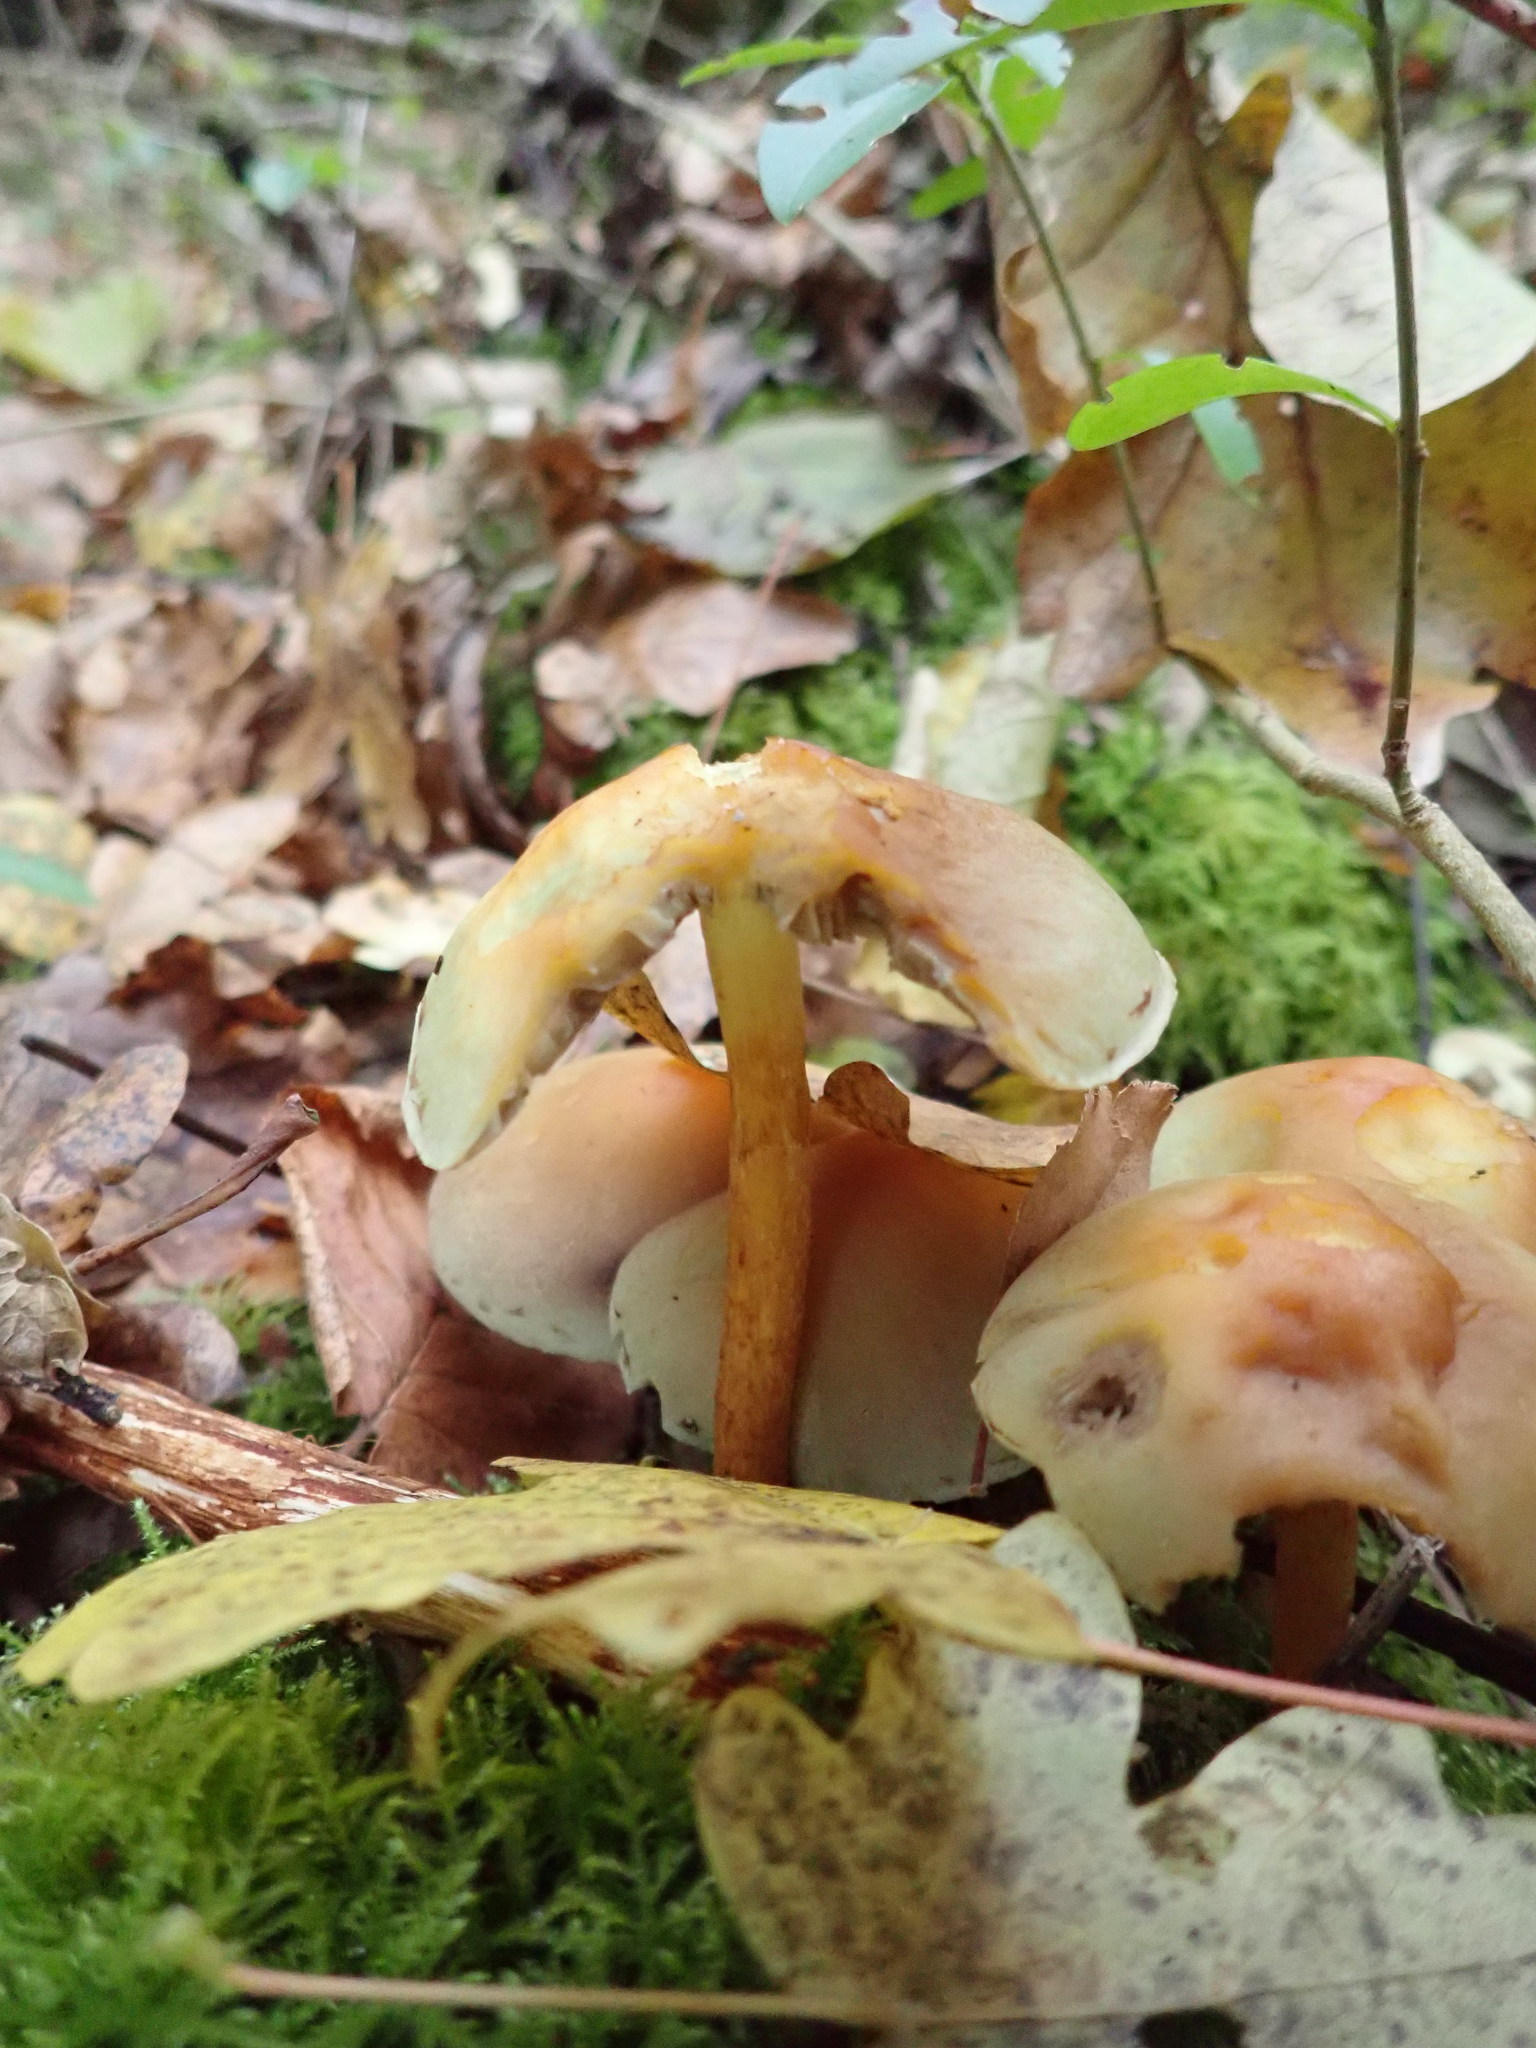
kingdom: Fungi
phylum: Basidiomycota
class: Agaricomycetes
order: Agaricales
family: Strophariaceae
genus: Hypholoma
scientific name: Hypholoma fasciculare
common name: Sulphur tuft
